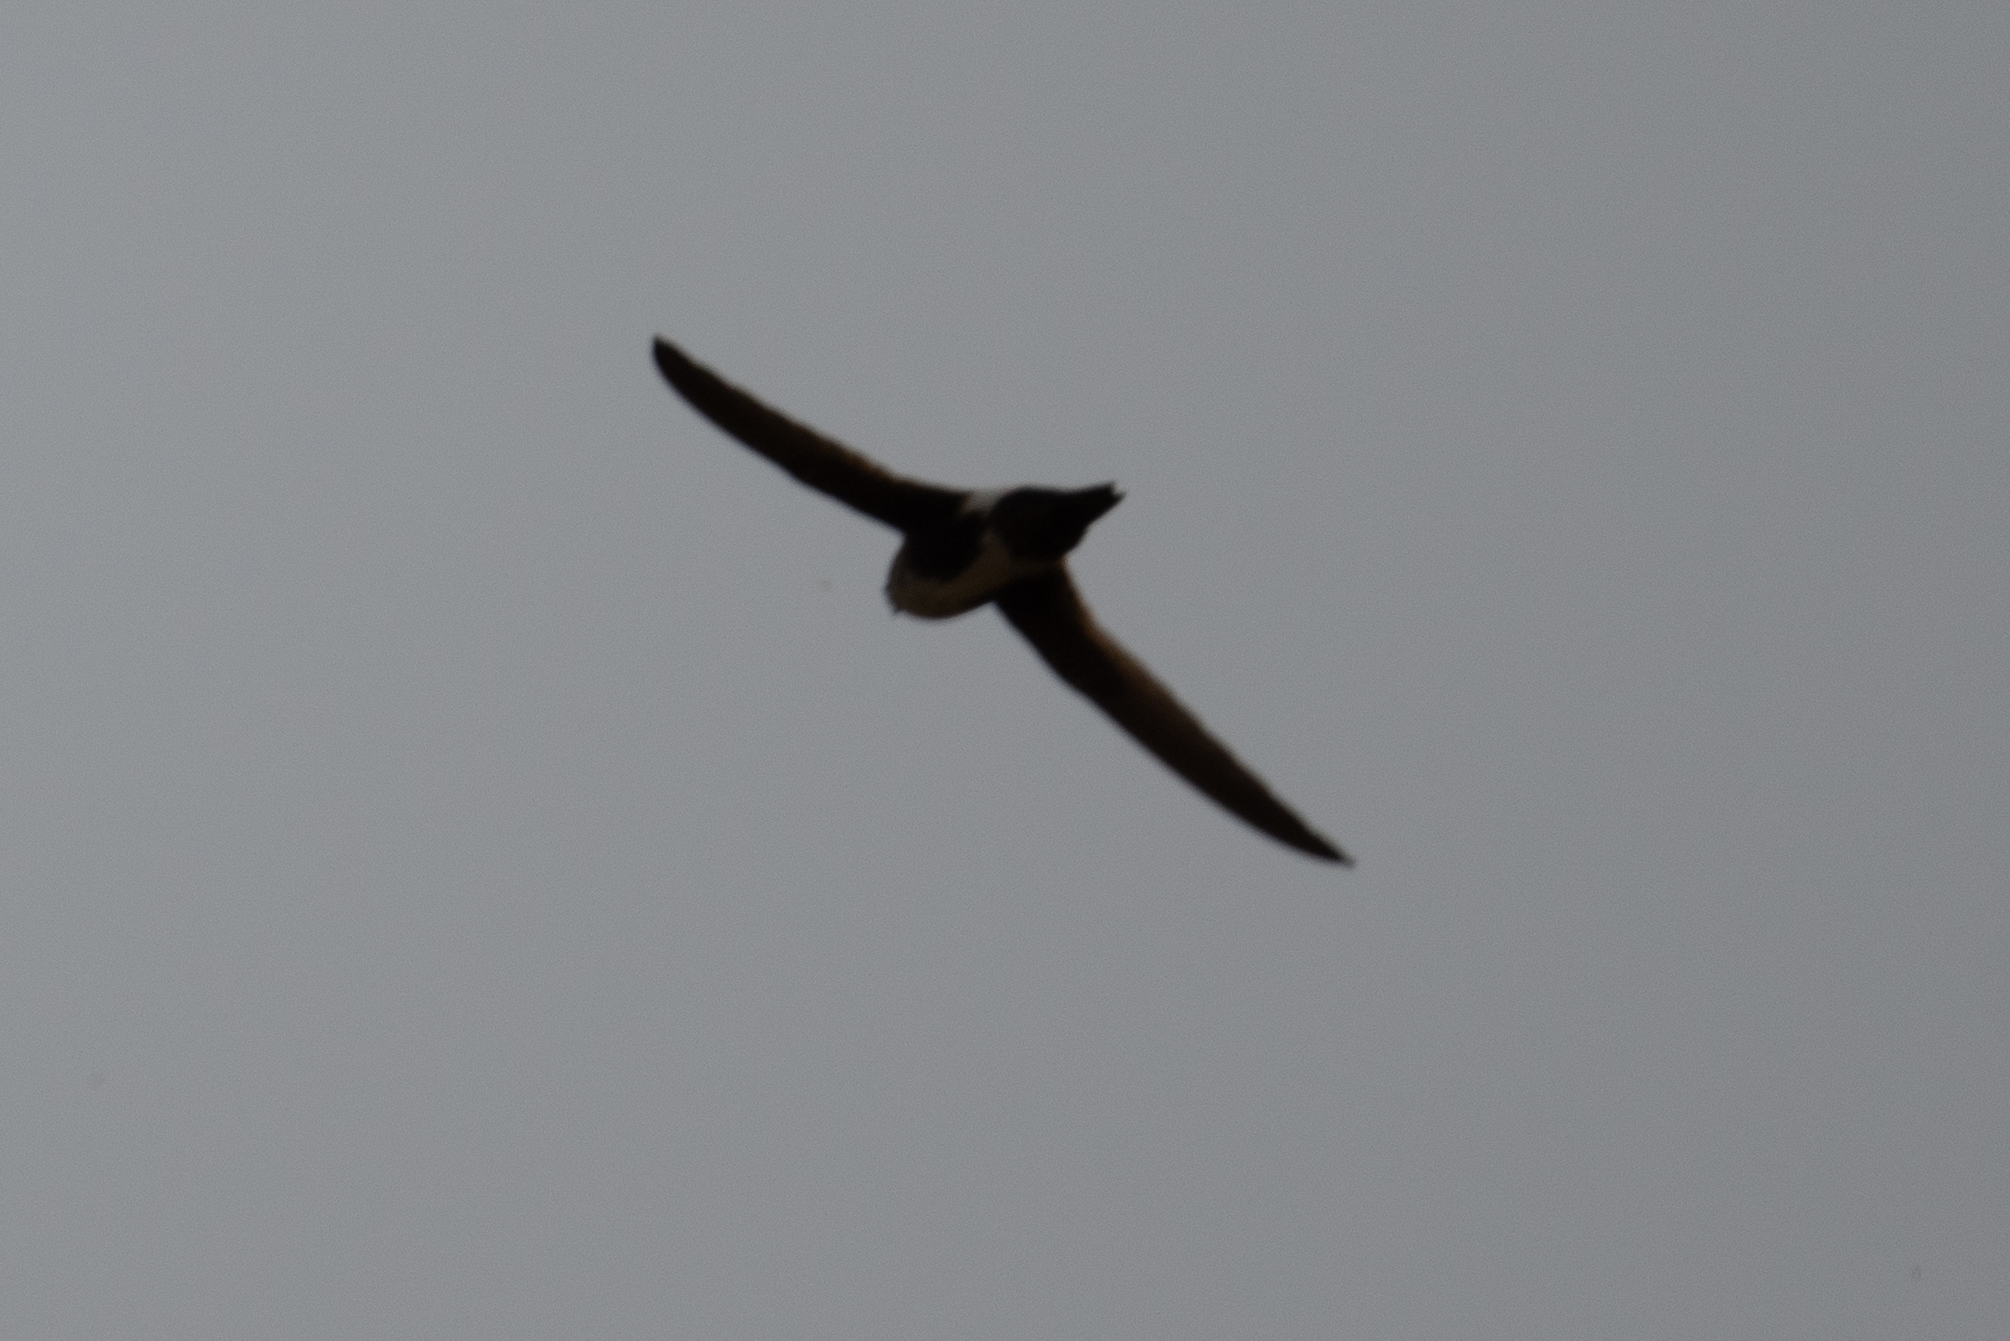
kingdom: Animalia
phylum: Chordata
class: Aves
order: Apodiformes
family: Apodidae
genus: Aeronautes
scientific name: Aeronautes saxatalis
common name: White-throated swift
